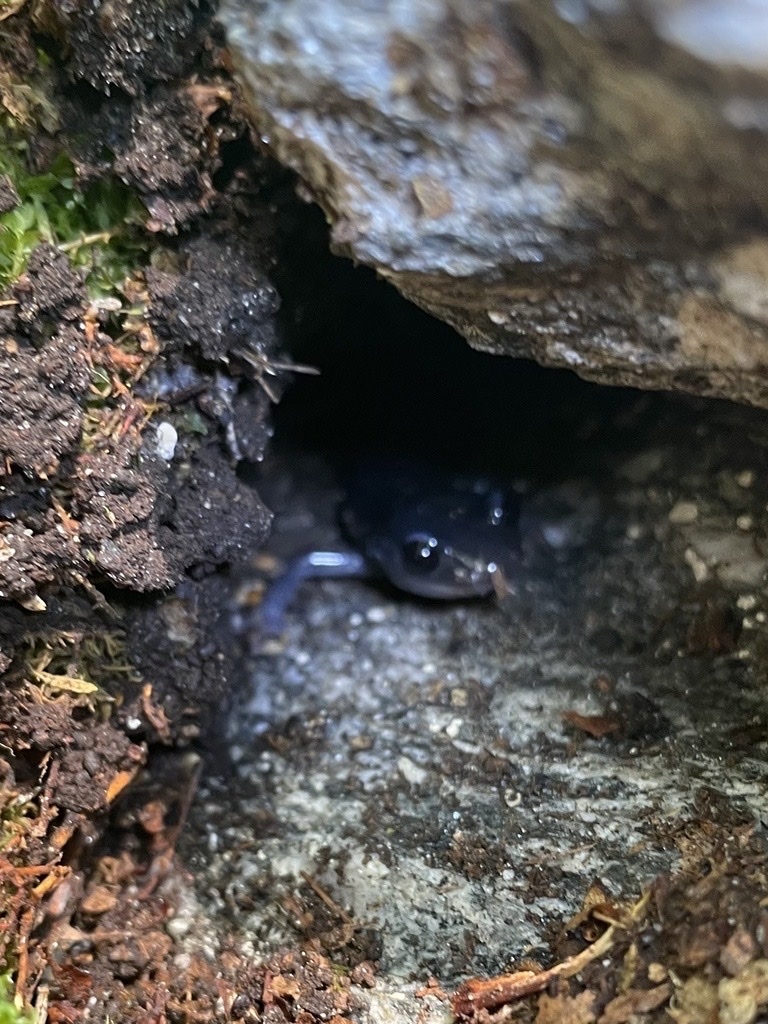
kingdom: Animalia
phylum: Chordata
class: Amphibia
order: Caudata
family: Plethodontidae
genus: Plethodon
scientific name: Plethodon amplus
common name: Blue ridge gray-cheeked salamander
